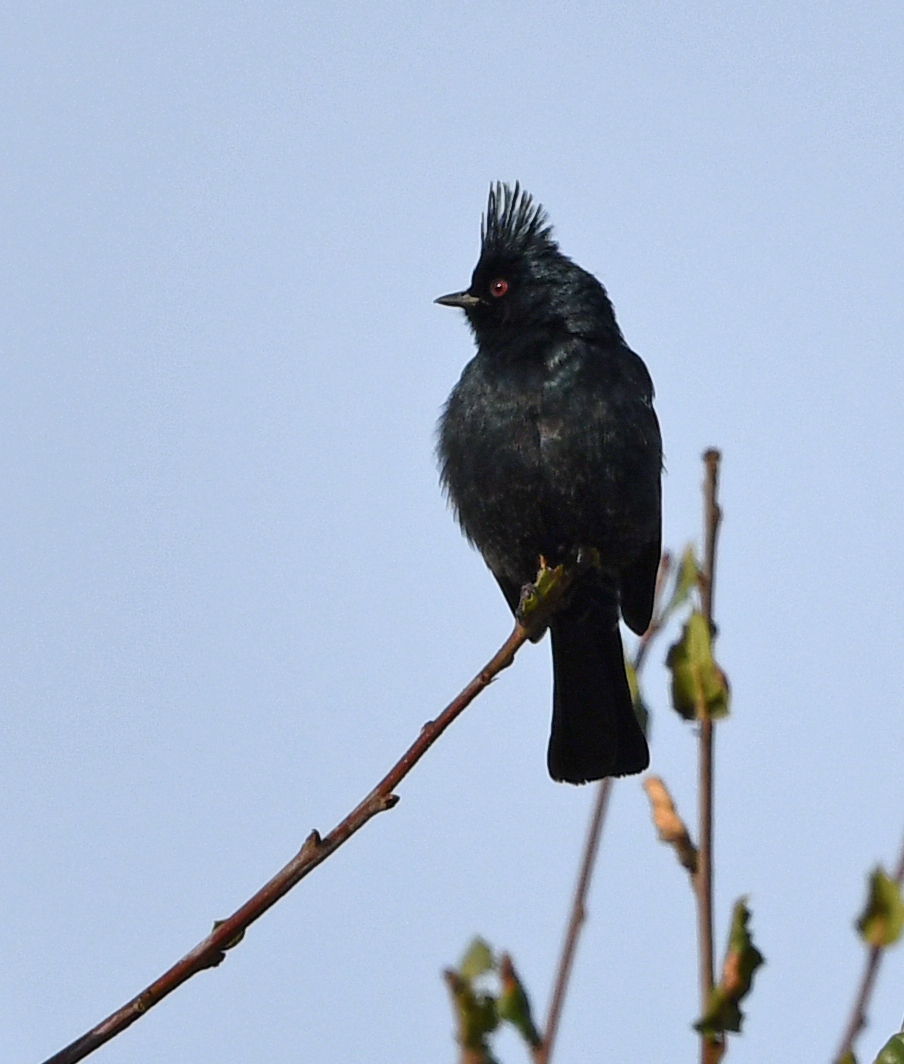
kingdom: Animalia
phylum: Chordata
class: Aves
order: Passeriformes
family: Ptilogonatidae
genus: Phainopepla
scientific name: Phainopepla nitens
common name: Phainopepla
